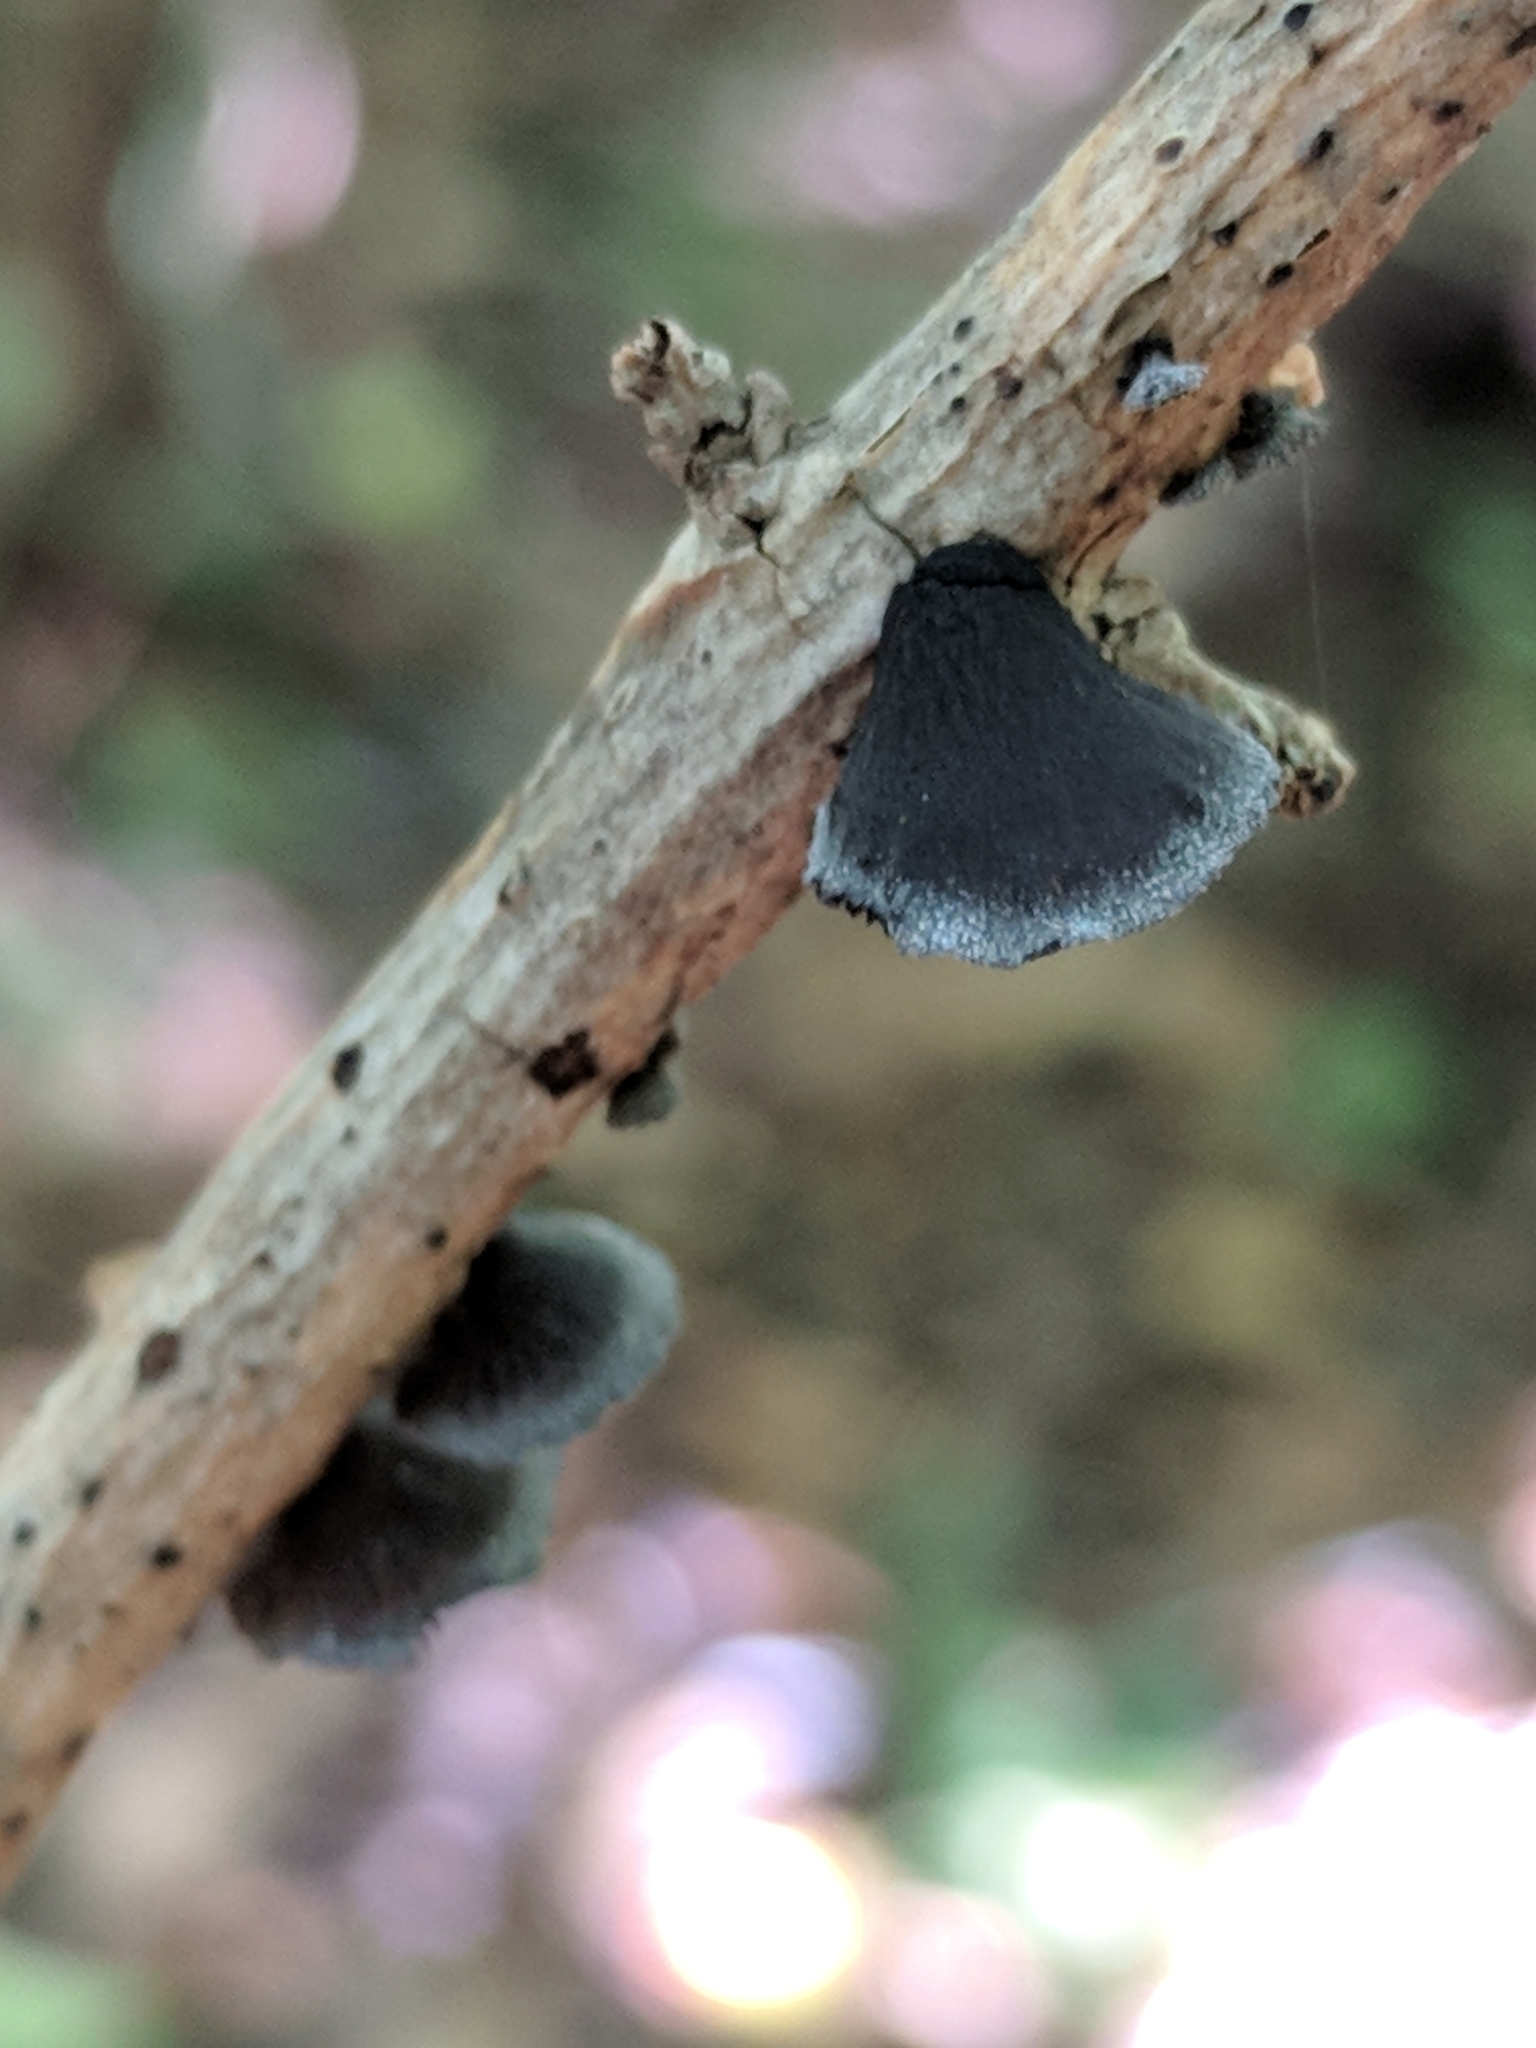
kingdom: Fungi
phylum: Basidiomycota
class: Agaricomycetes
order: Agaricales
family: Pleurotaceae
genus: Resupinatus
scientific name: Resupinatus alboniger
